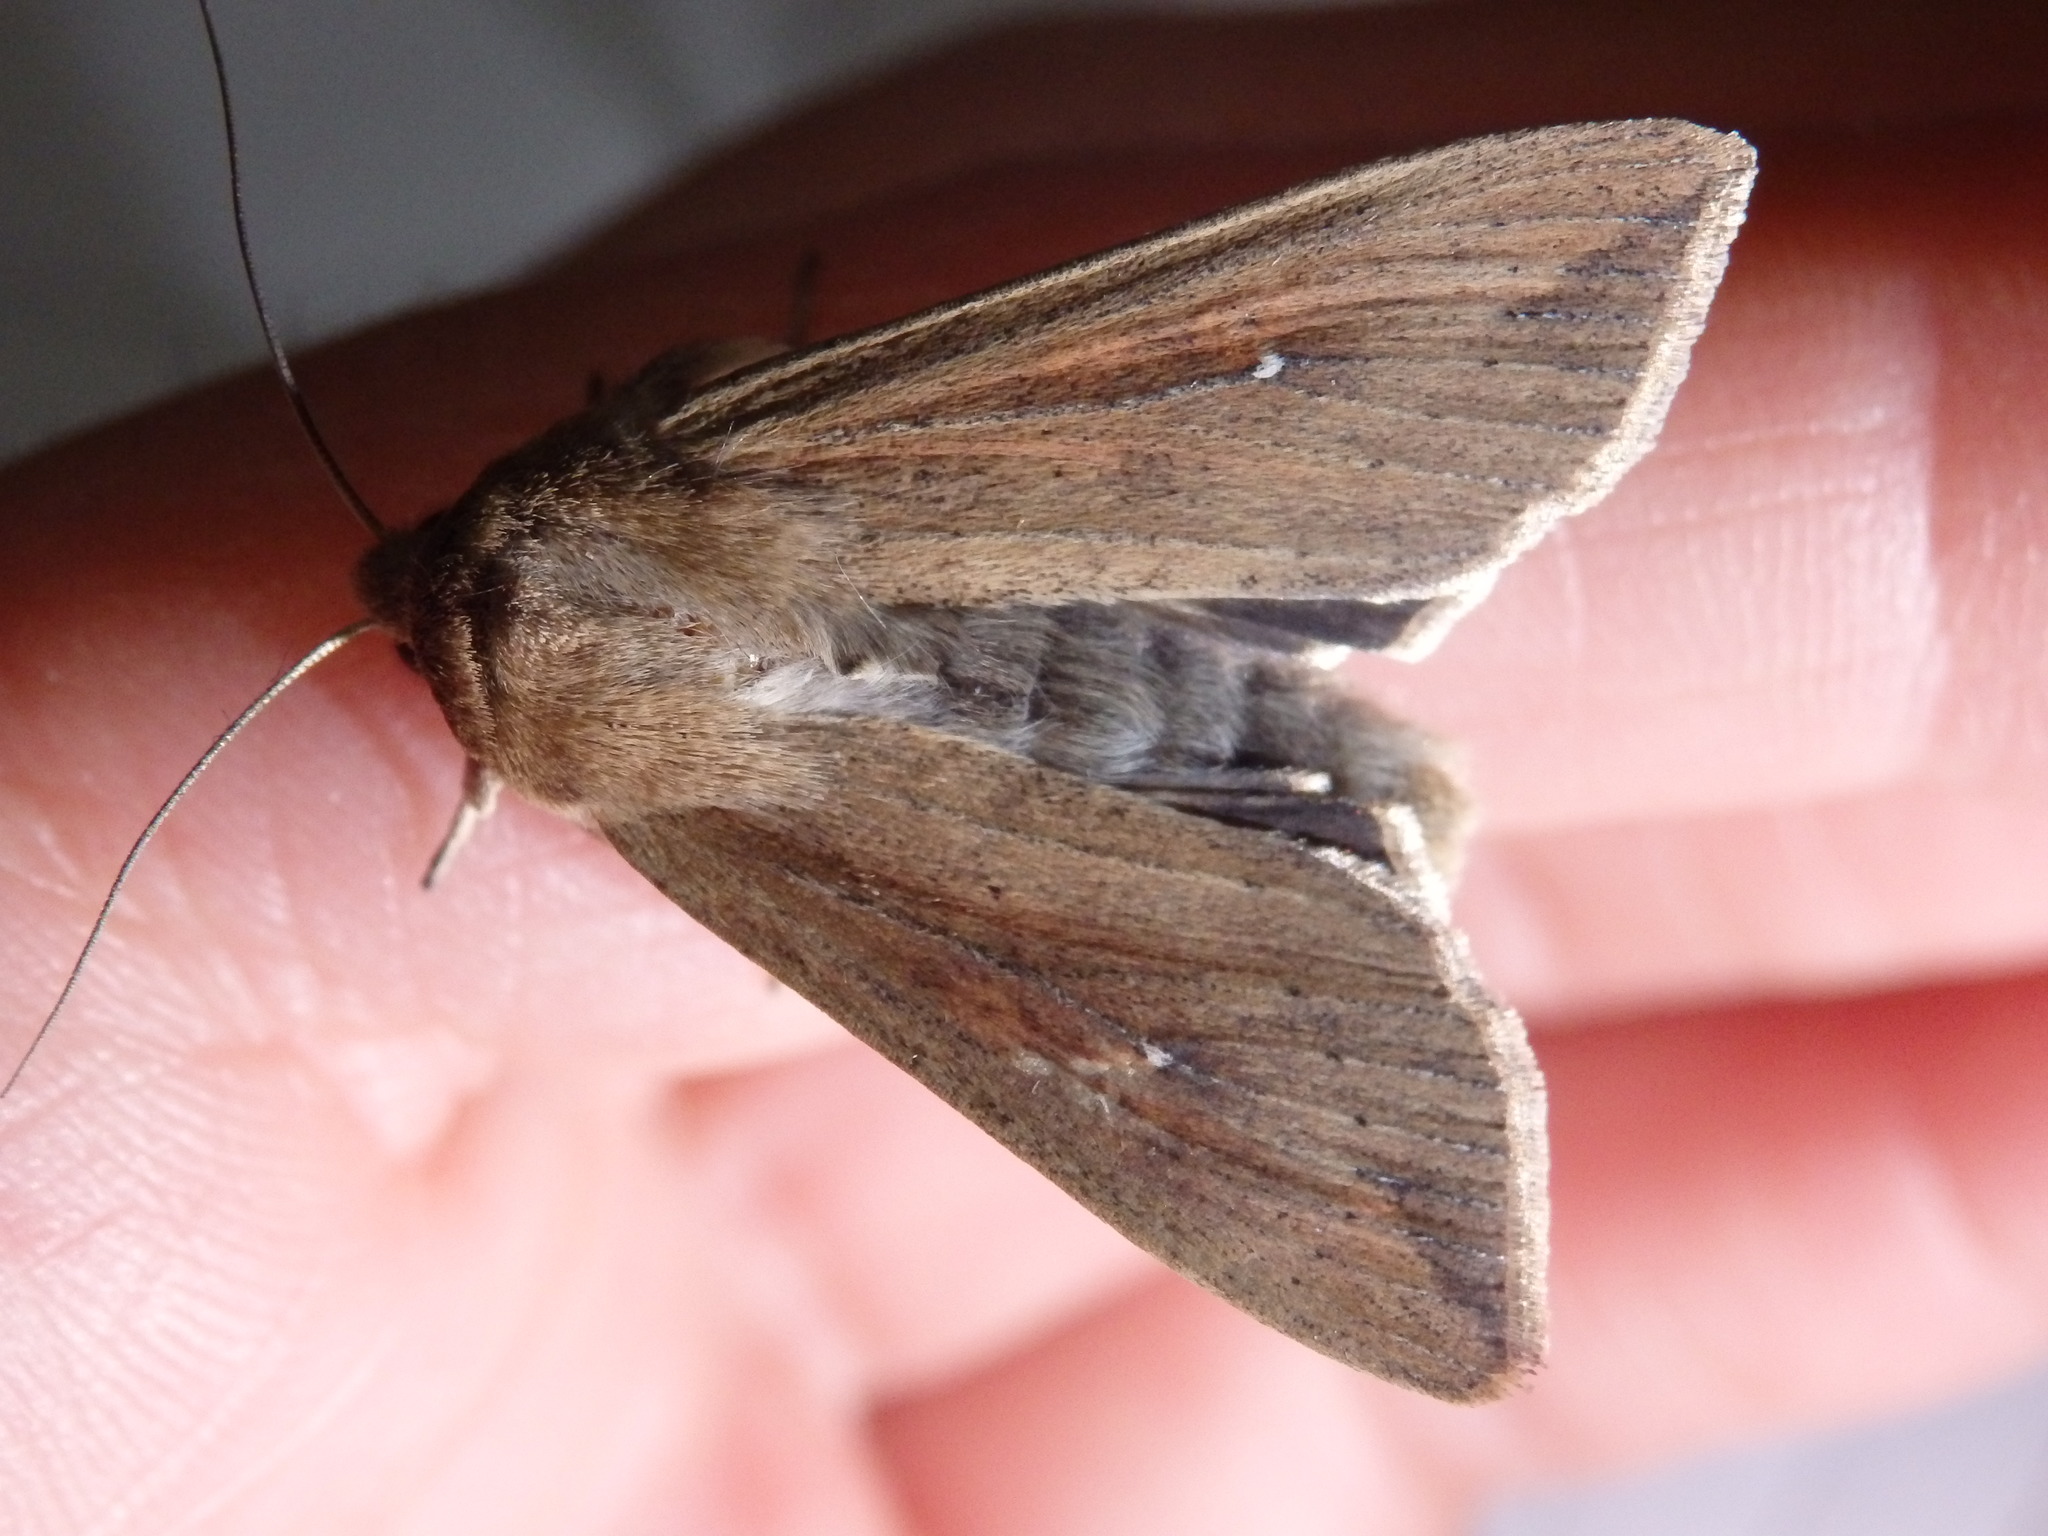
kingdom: Animalia
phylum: Arthropoda
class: Insecta
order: Lepidoptera
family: Noctuidae
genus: Mythimna
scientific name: Mythimna unipuncta
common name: White-speck
